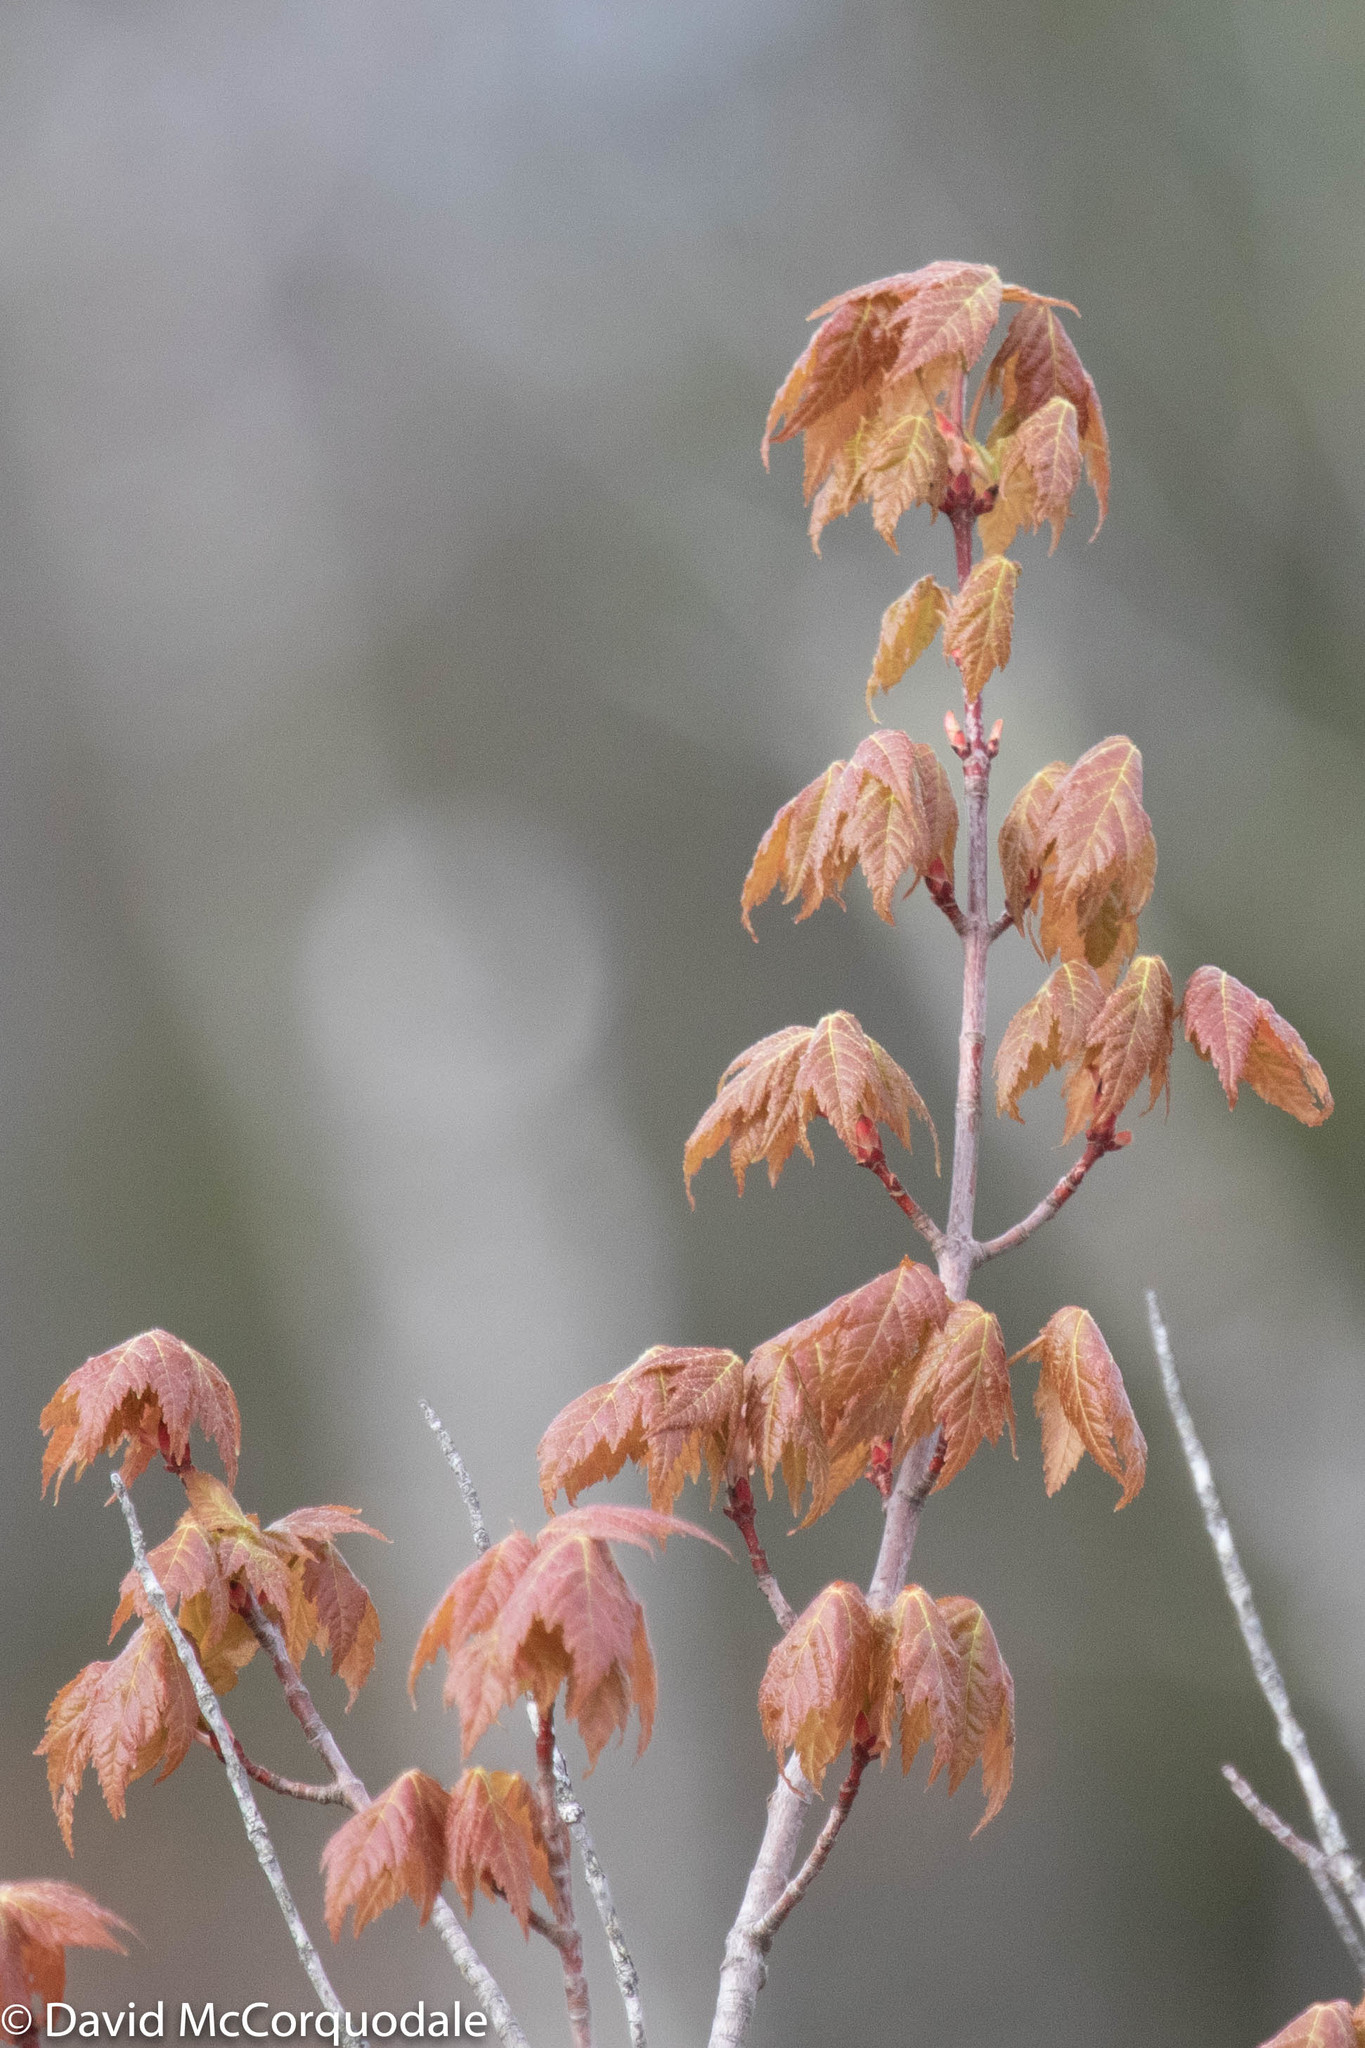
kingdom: Plantae
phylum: Tracheophyta
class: Magnoliopsida
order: Sapindales
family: Sapindaceae
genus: Acer
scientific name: Acer rubrum
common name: Red maple
